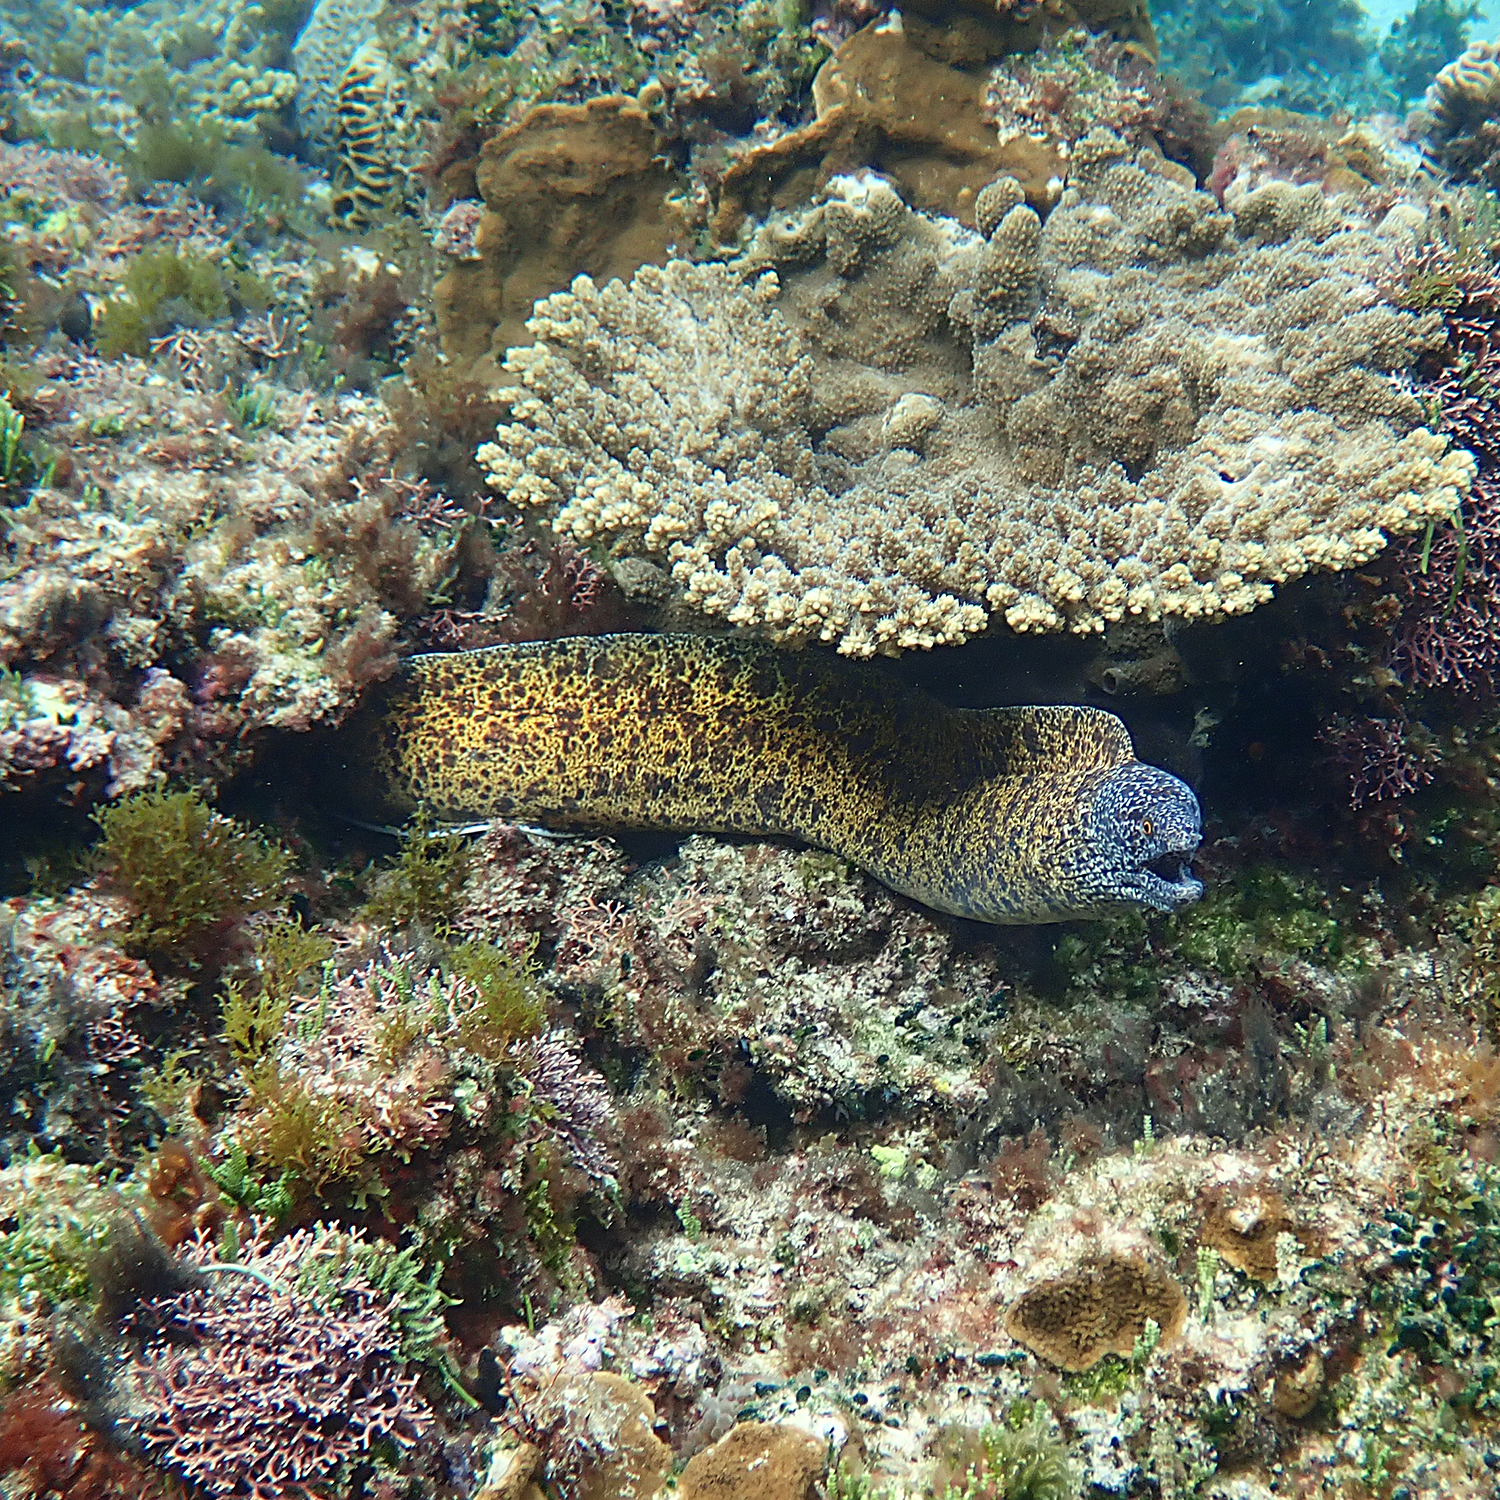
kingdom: Animalia
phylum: Chordata
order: Anguilliformes
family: Muraenidae
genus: Gymnothorax
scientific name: Gymnothorax annasona
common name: Lord howe island moray
